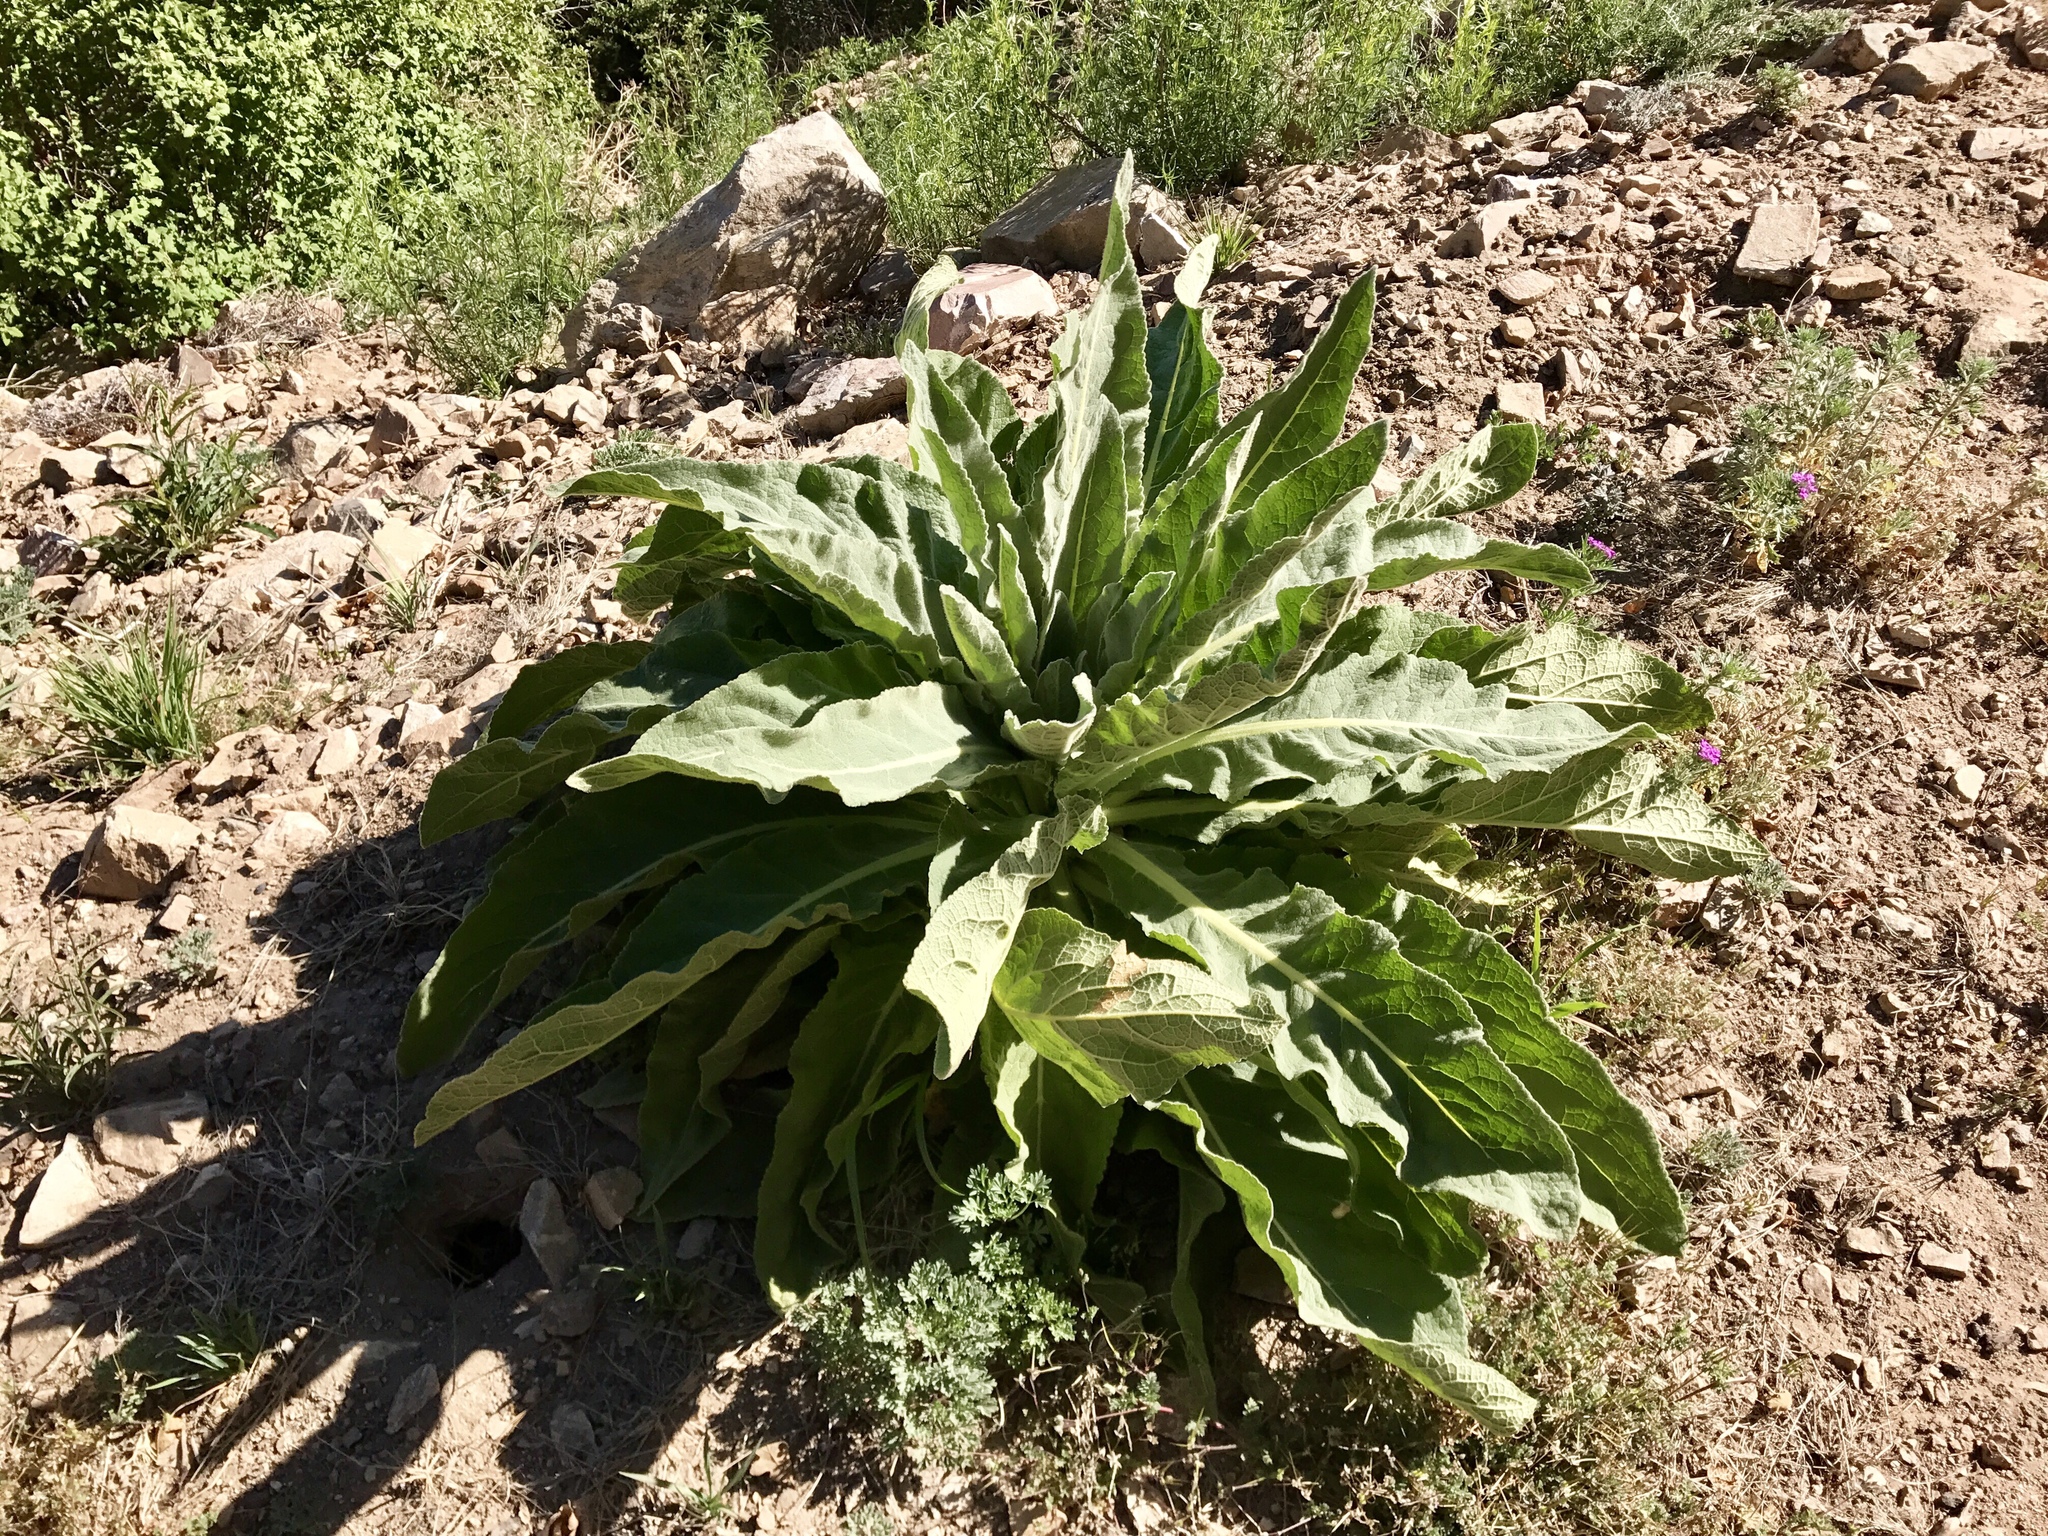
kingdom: Plantae
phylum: Tracheophyta
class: Magnoliopsida
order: Lamiales
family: Scrophulariaceae
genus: Verbascum
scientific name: Verbascum thapsus
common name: Common mullein
